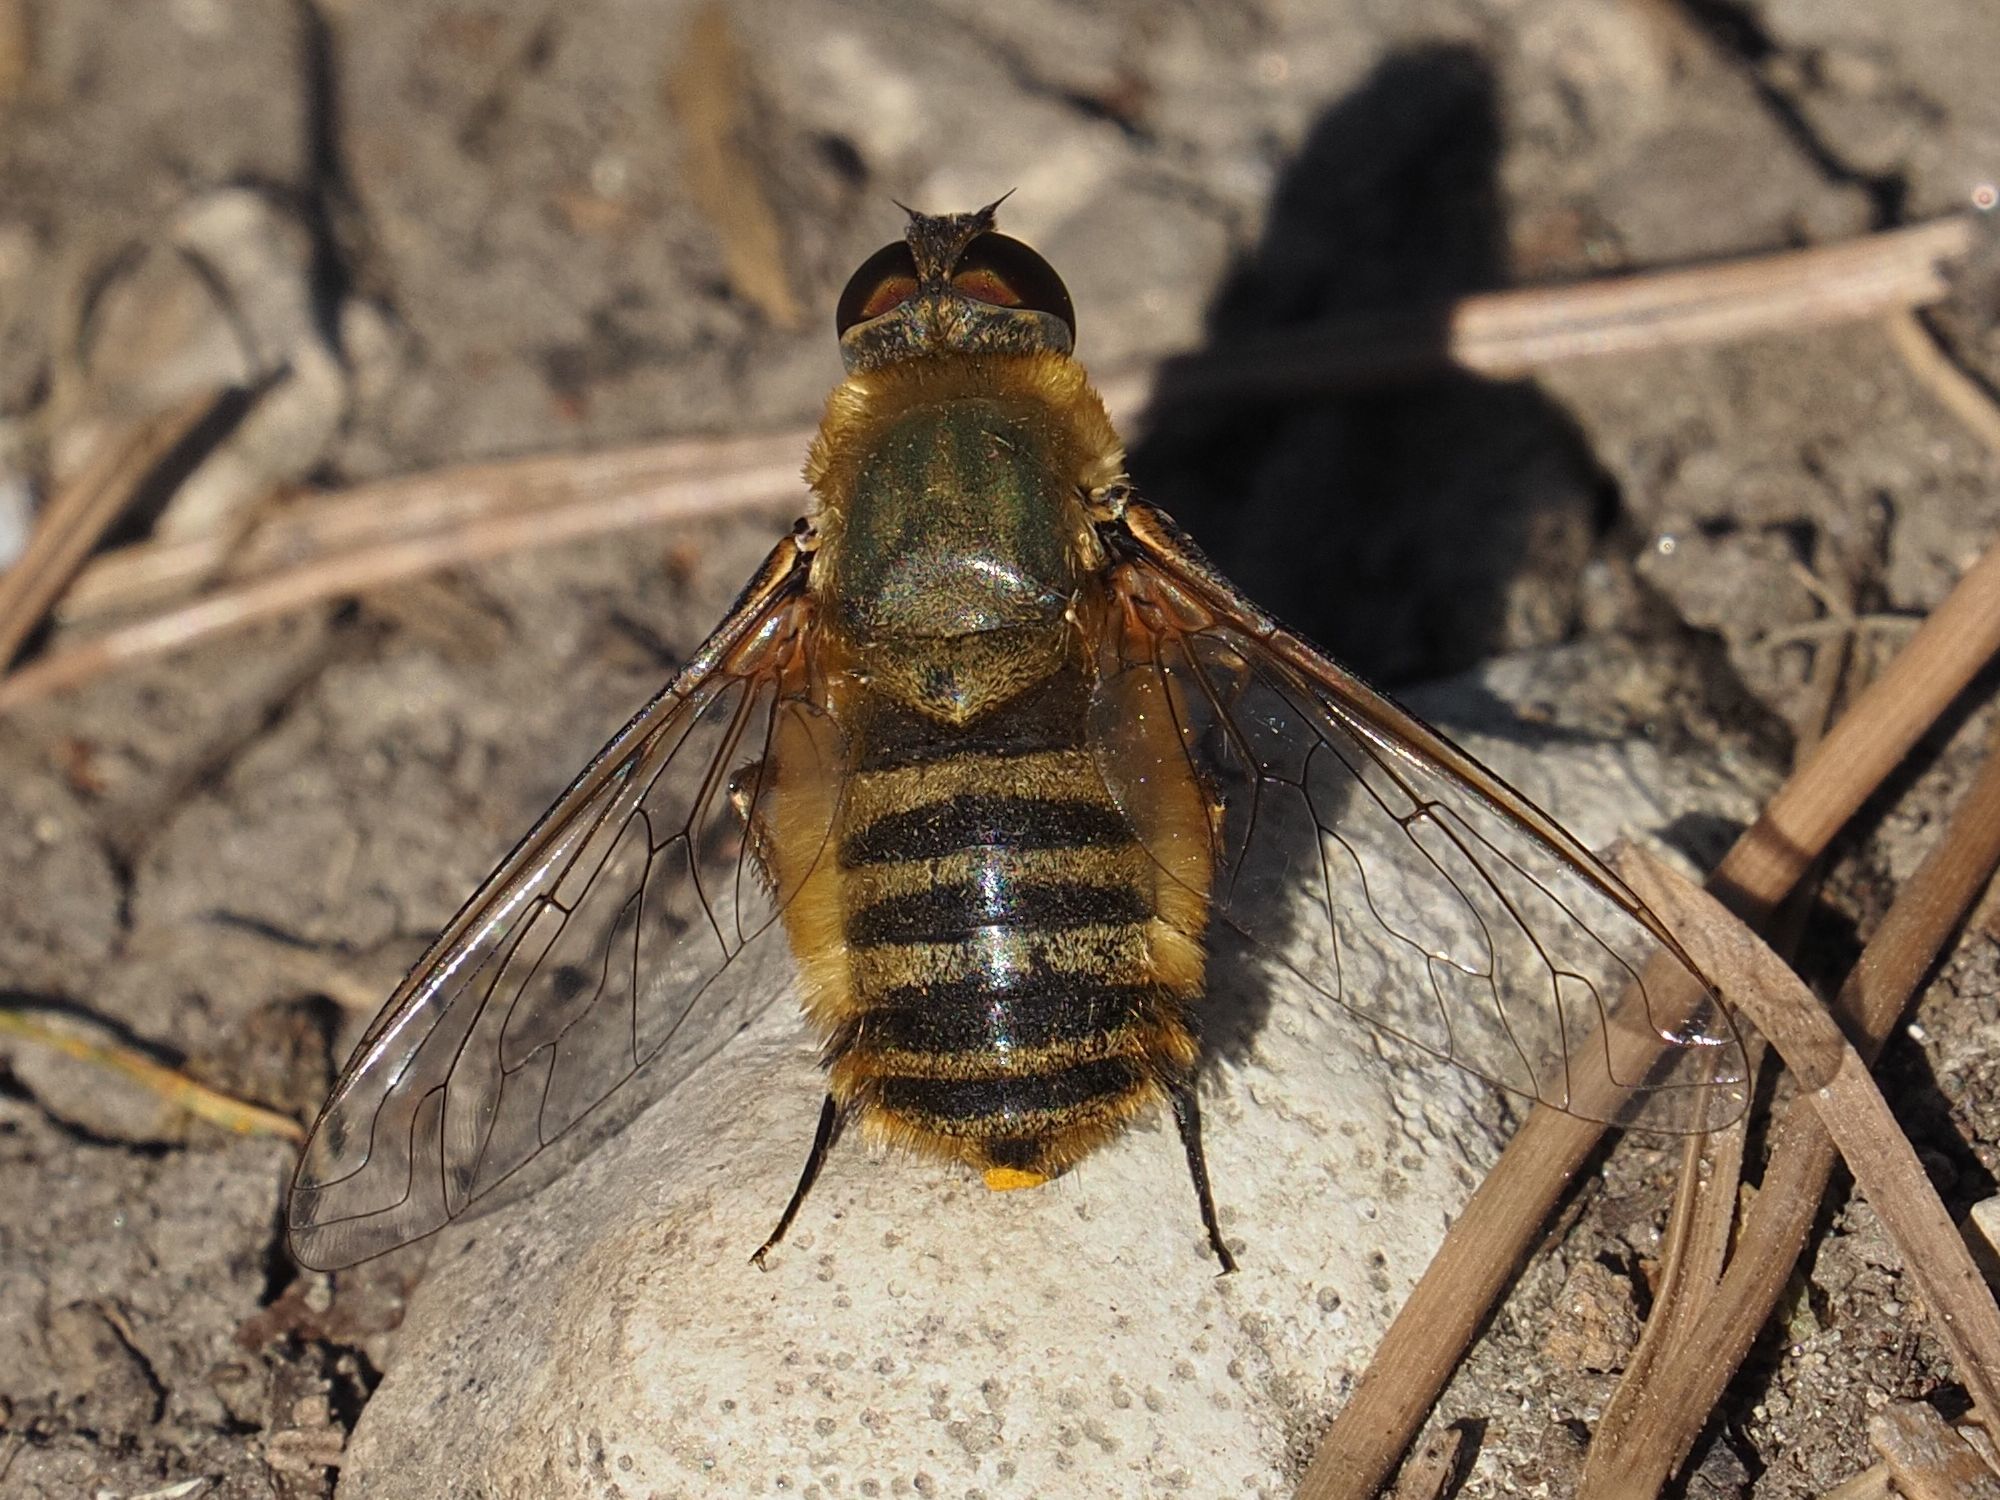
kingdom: Animalia
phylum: Arthropoda
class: Insecta
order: Diptera
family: Bombyliidae
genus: Villa
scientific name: Villa hottentotta
